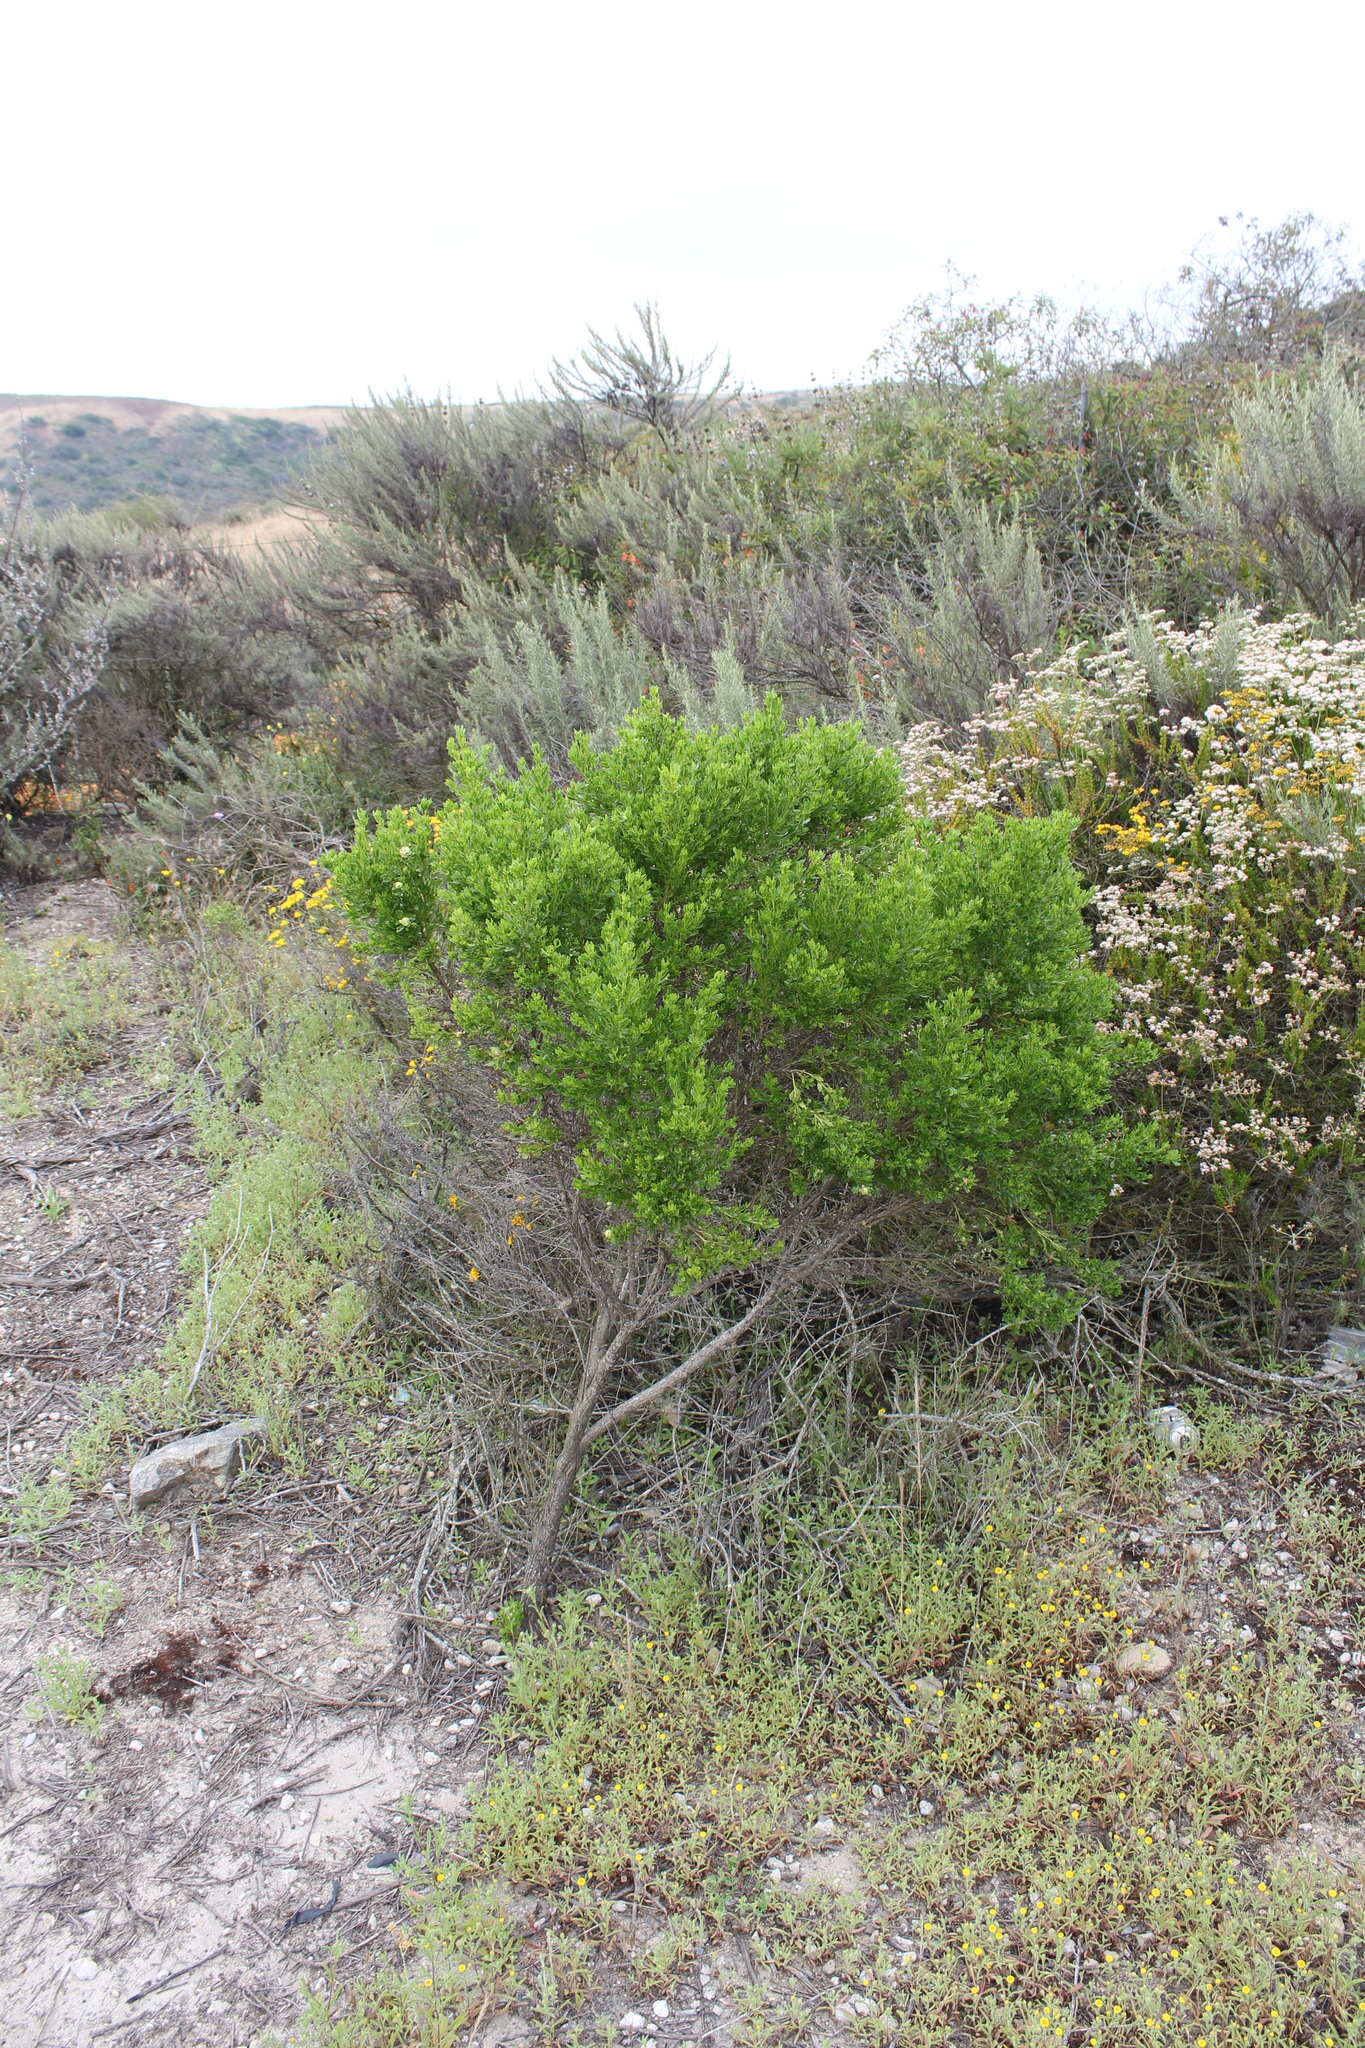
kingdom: Plantae
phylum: Tracheophyta
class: Magnoliopsida
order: Asterales
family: Asteraceae
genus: Baccharis
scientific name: Baccharis pilularis
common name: Coyotebrush
